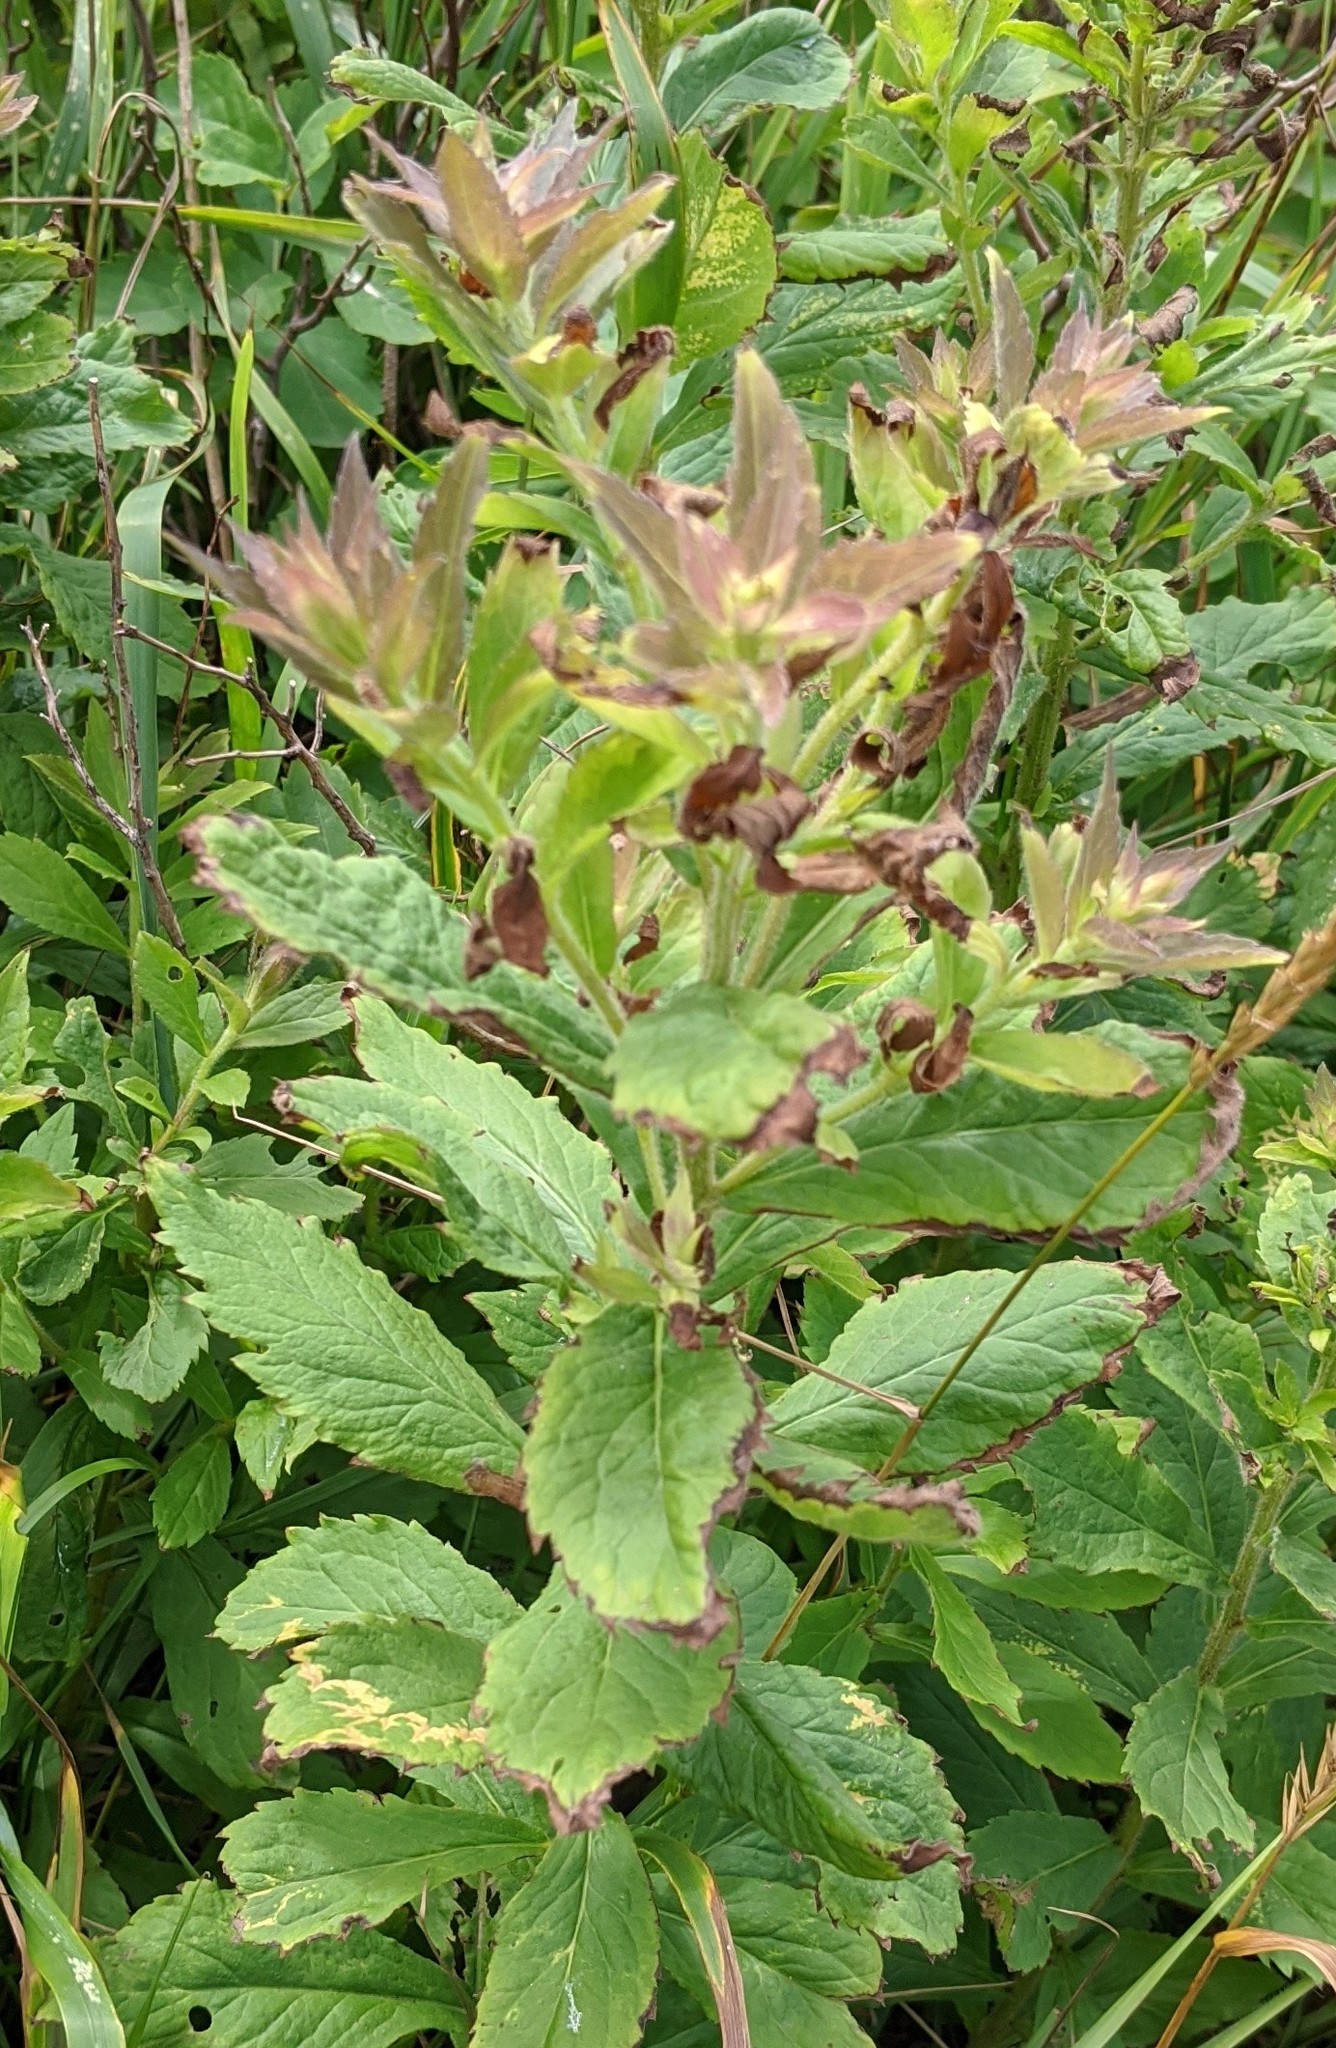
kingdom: Plantae
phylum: Tracheophyta
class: Magnoliopsida
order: Asterales
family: Asteraceae
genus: Solidago
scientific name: Solidago rugosa
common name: Rough-stemmed goldenrod
